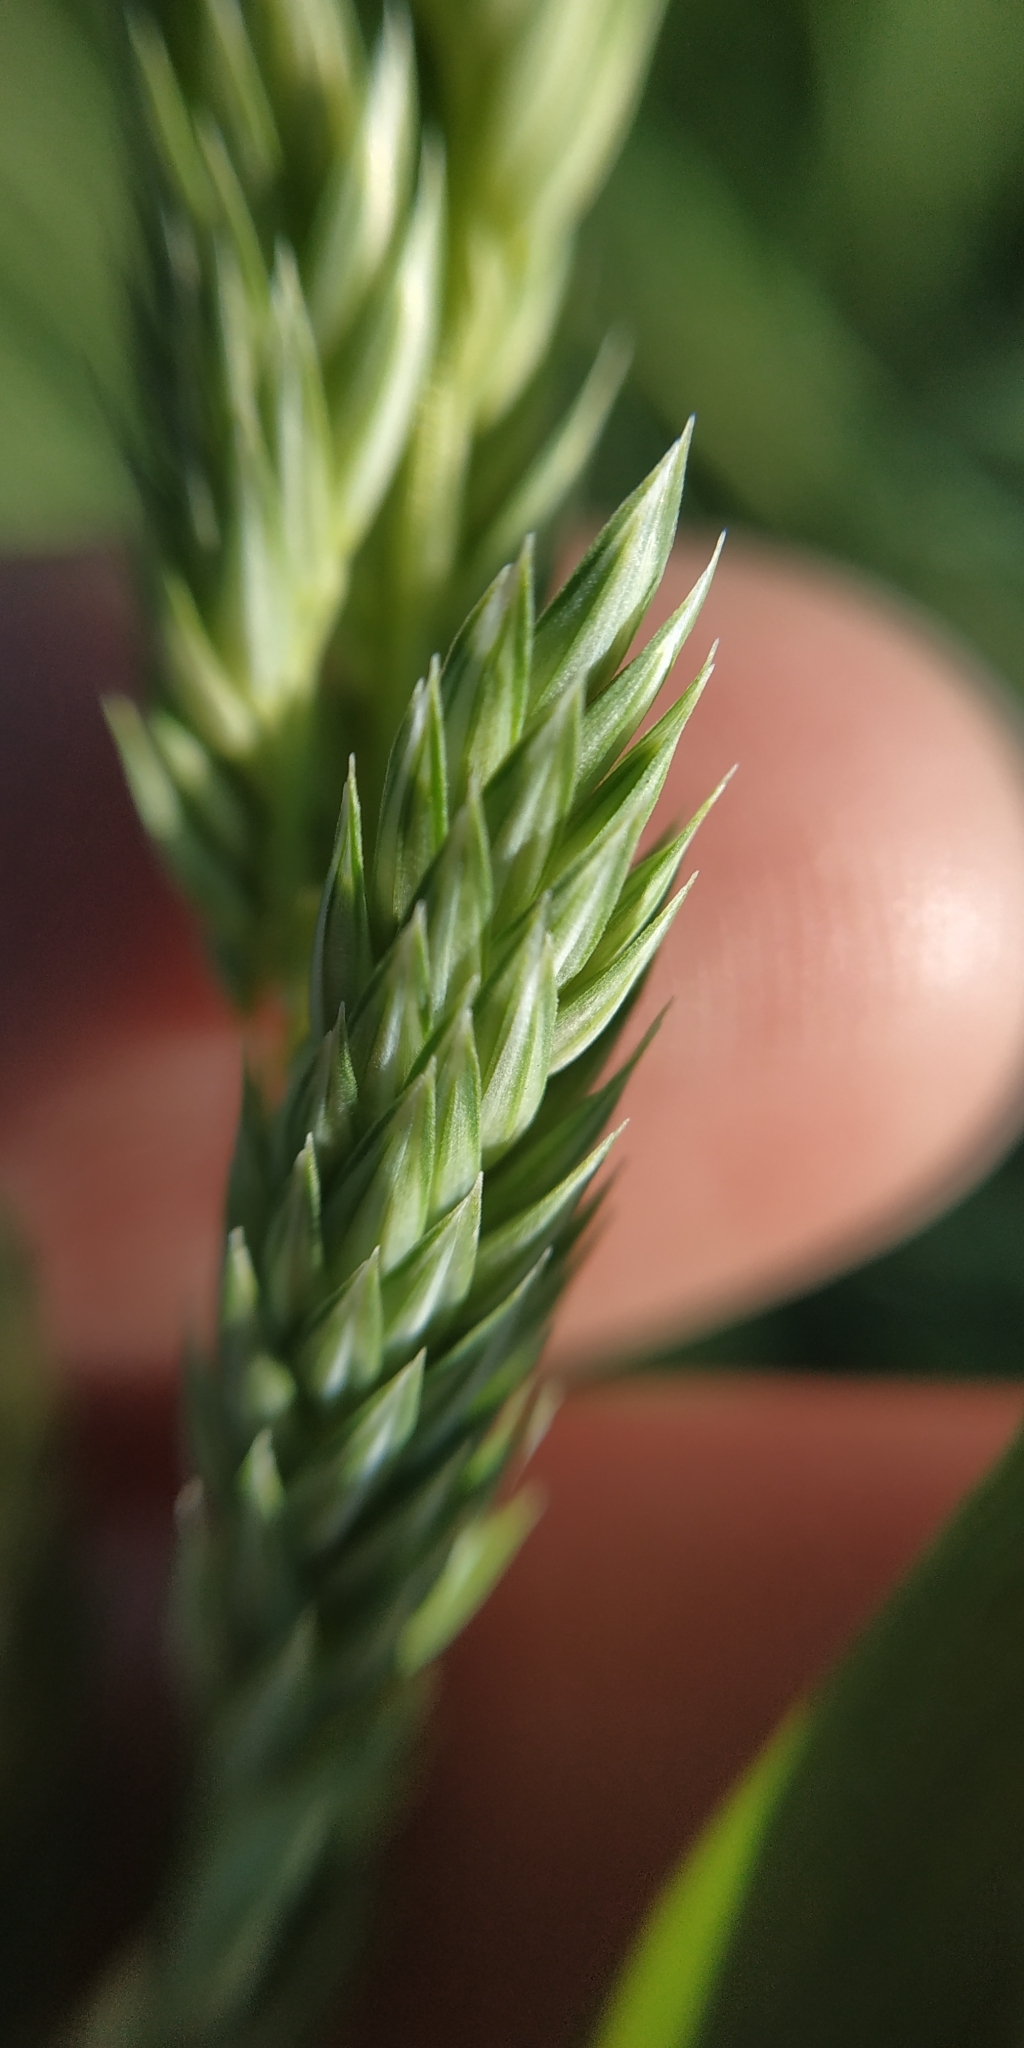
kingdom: Plantae
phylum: Tracheophyta
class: Liliopsida
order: Poales
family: Poaceae
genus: Phalaris
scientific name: Phalaris arundinacea
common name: Reed canary-grass
